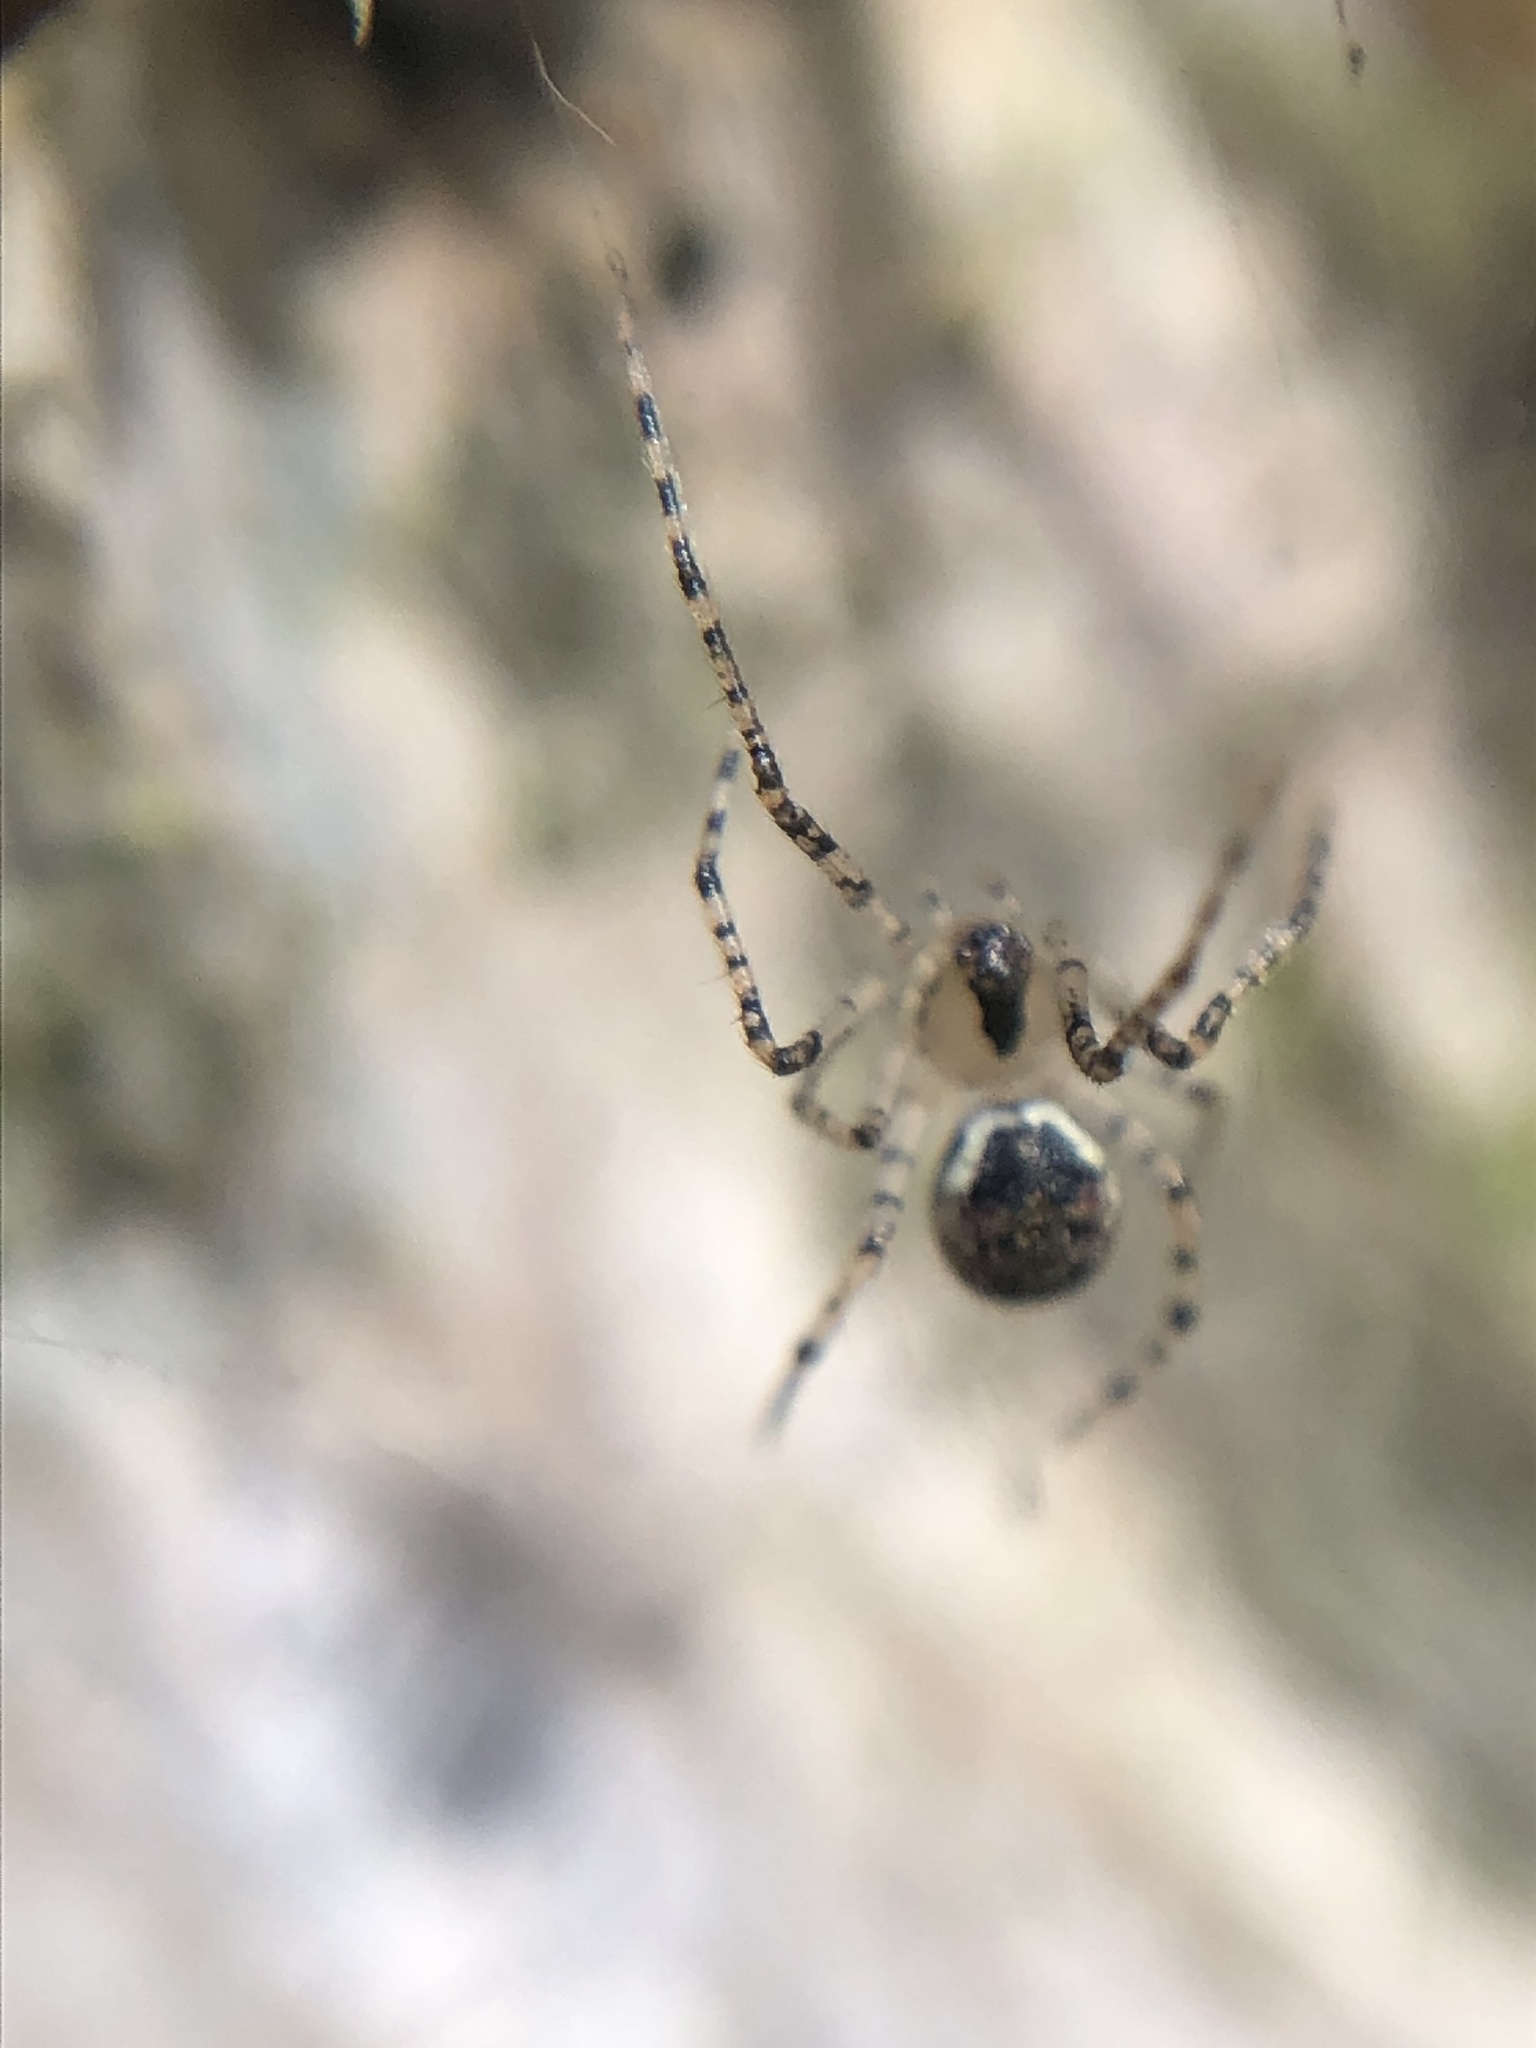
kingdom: Animalia
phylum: Arthropoda
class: Arachnida
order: Araneae
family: Theridiidae
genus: Platnickina
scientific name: Platnickina tincta
